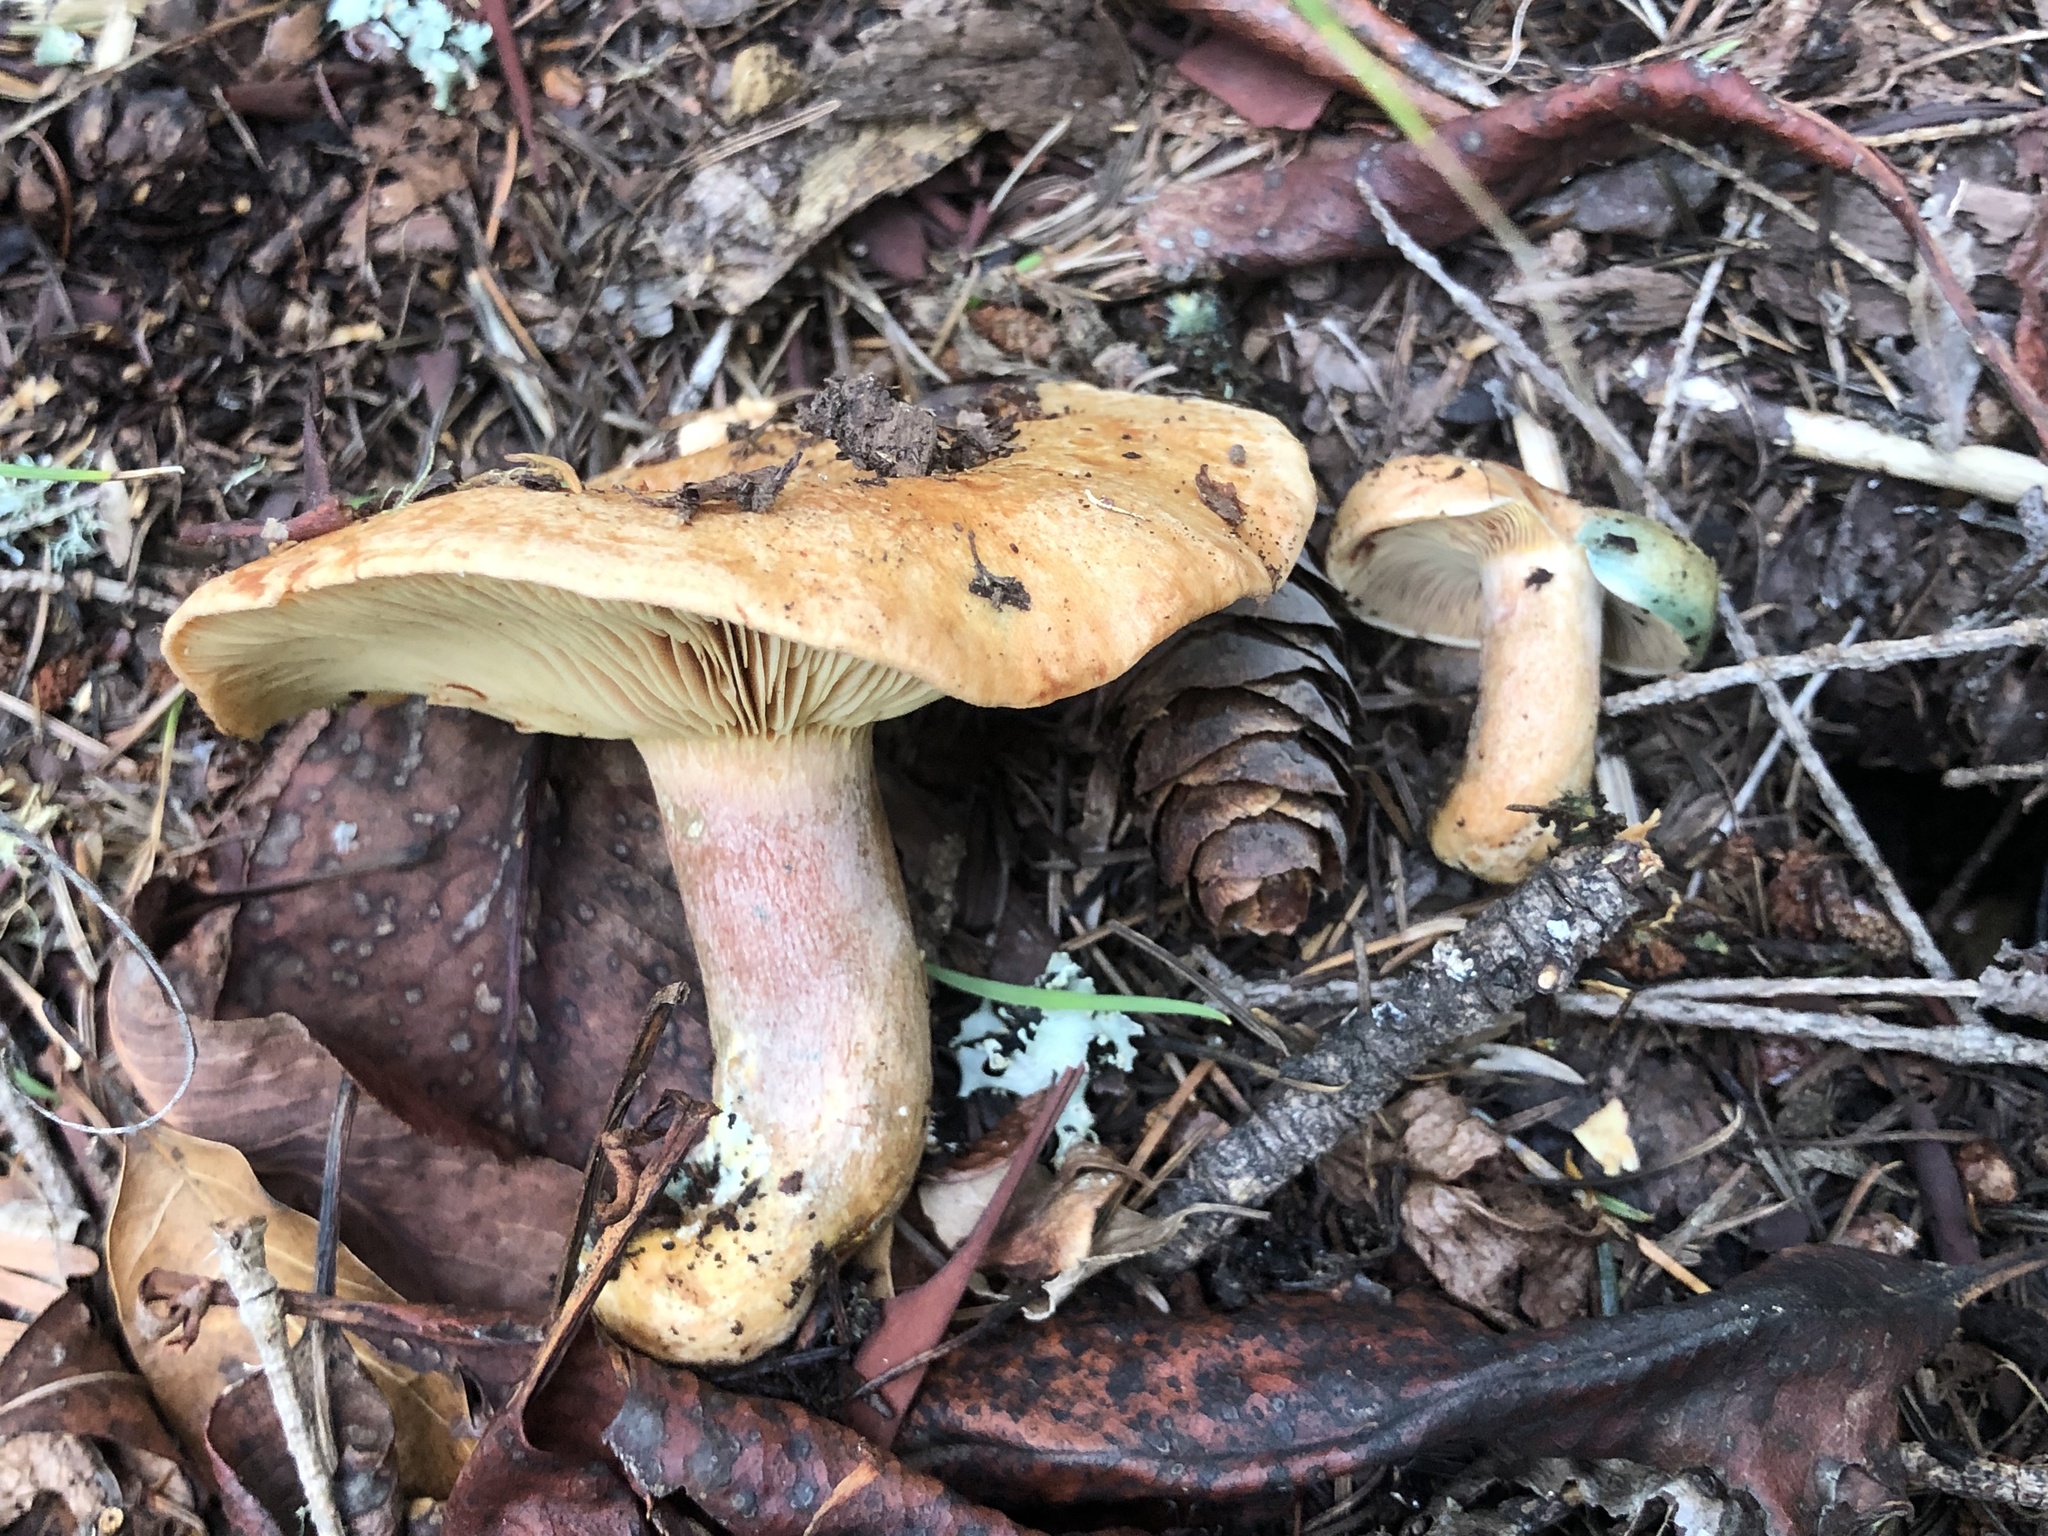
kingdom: Fungi
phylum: Basidiomycota
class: Agaricomycetes
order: Russulales
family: Russulaceae
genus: Lactarius
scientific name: Lactarius rubrilacteus
